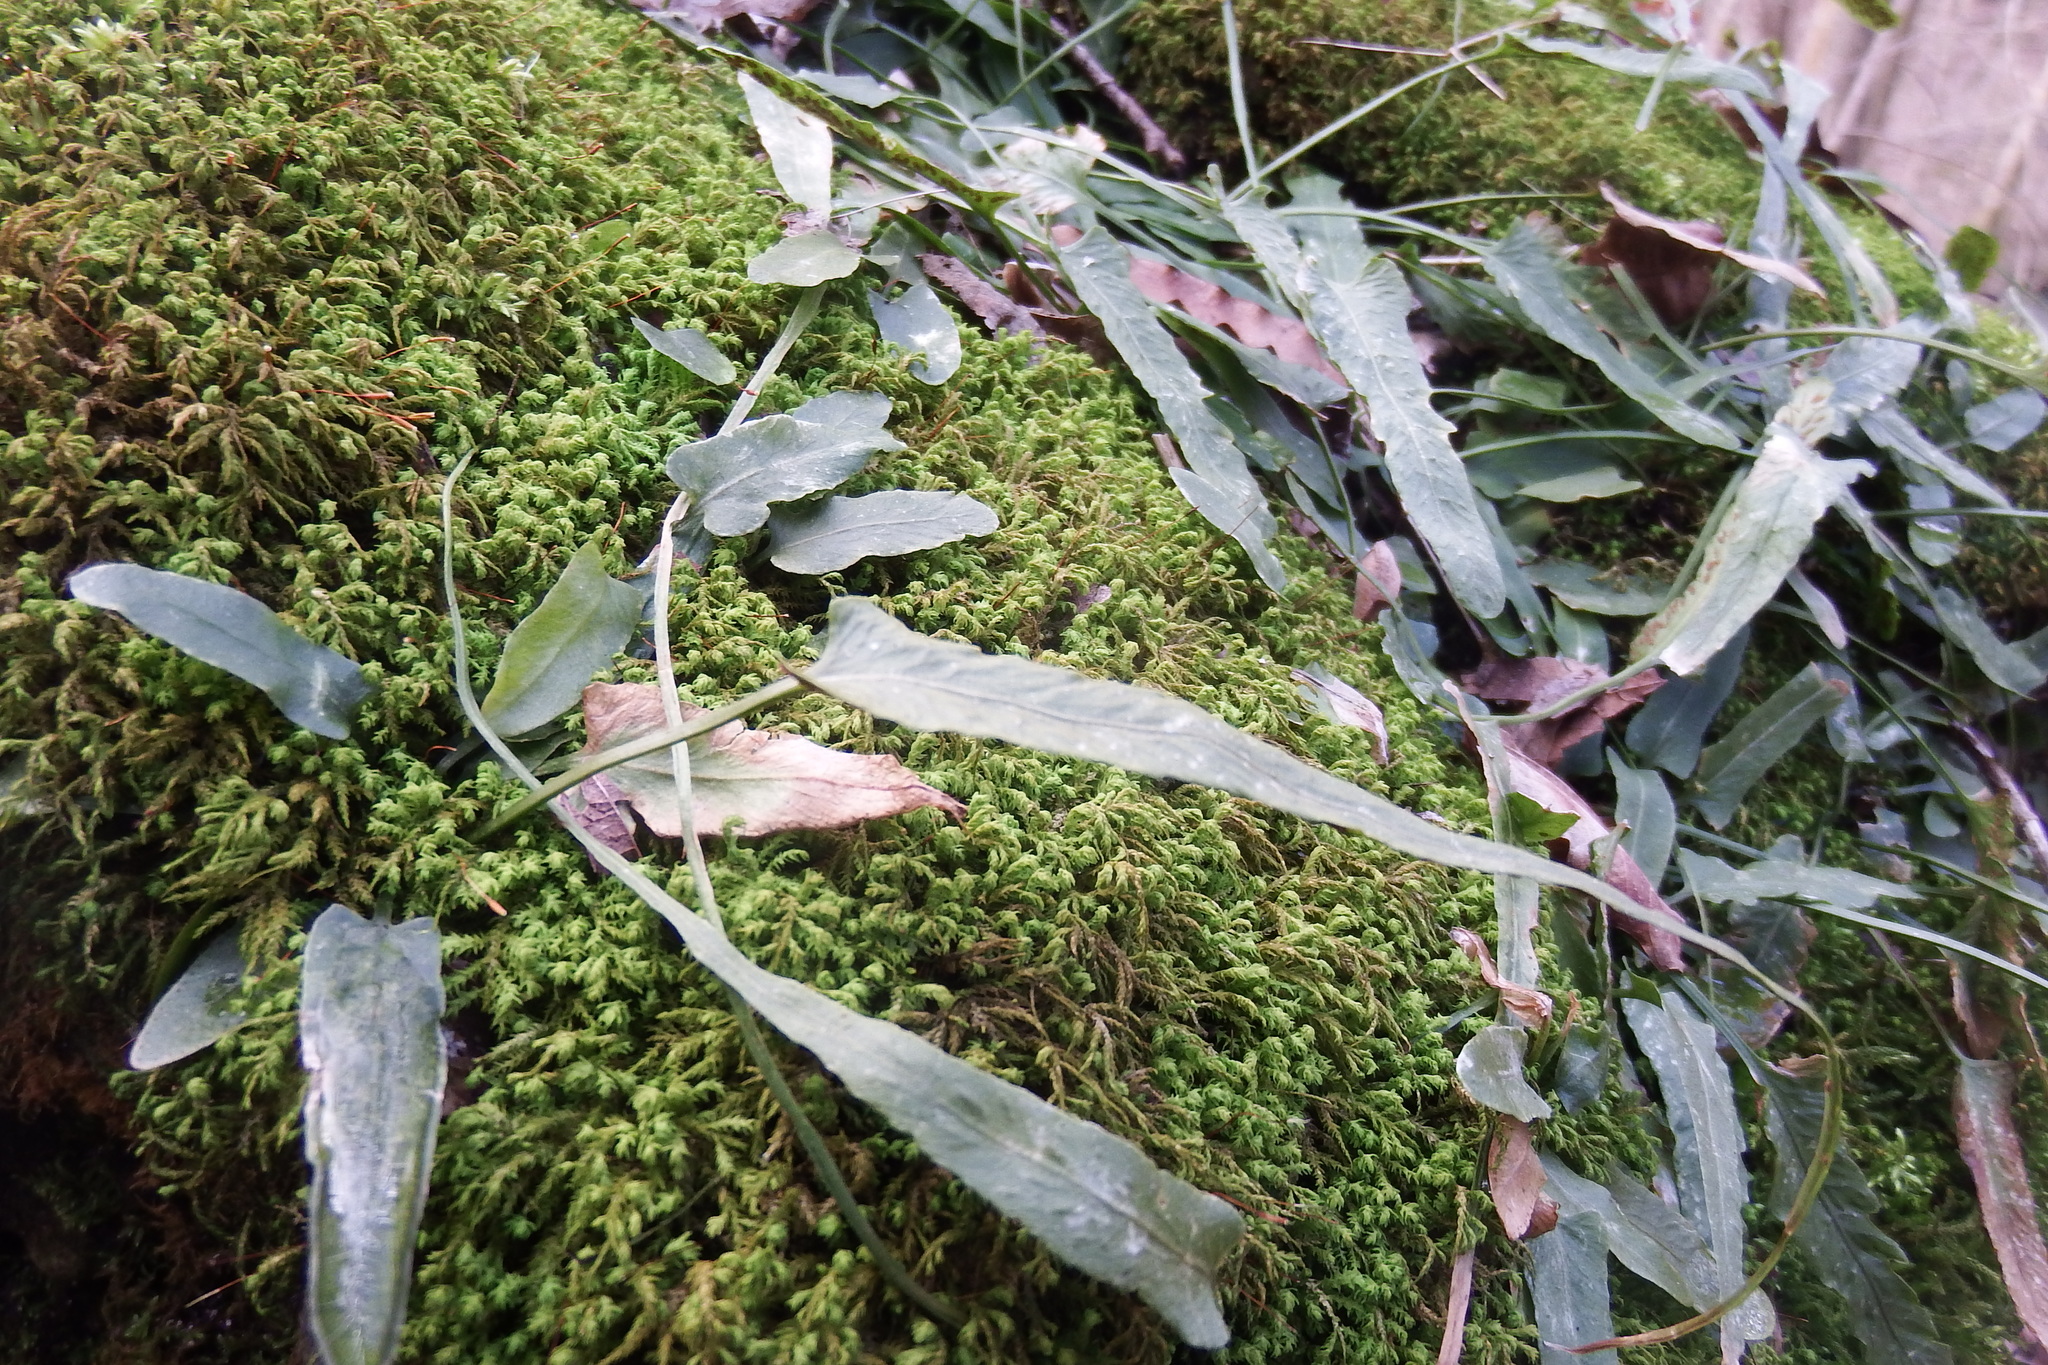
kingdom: Plantae
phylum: Tracheophyta
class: Polypodiopsida
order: Polypodiales
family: Aspleniaceae
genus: Asplenium
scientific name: Asplenium rhizophyllum
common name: Walking fern
